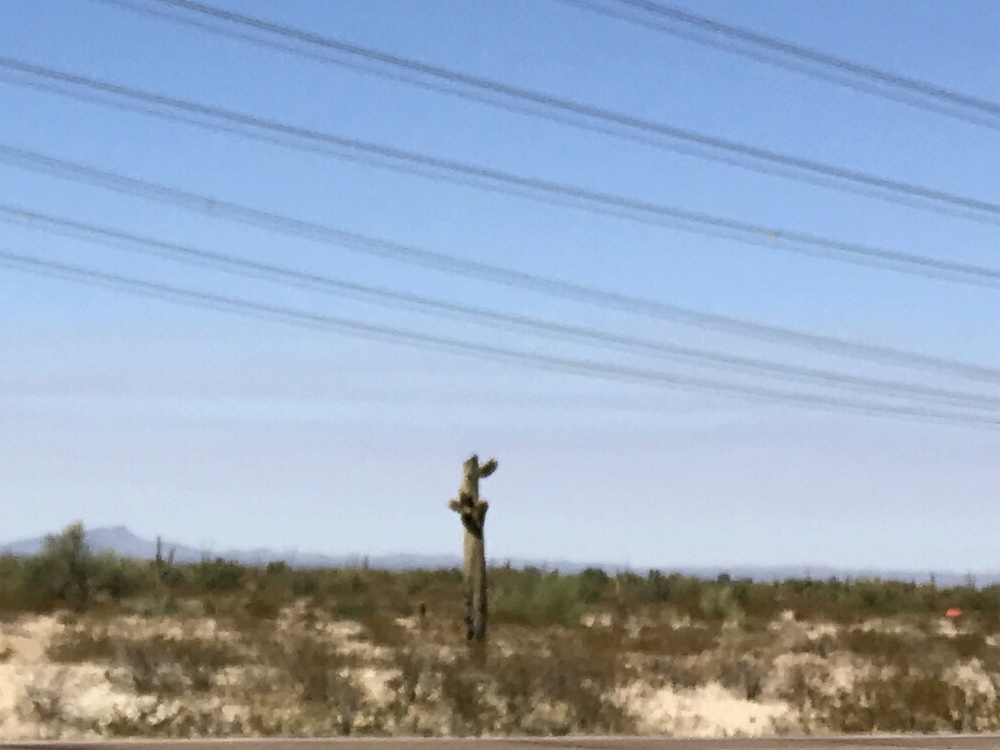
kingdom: Plantae
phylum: Tracheophyta
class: Magnoliopsida
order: Caryophyllales
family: Cactaceae
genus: Carnegiea
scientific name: Carnegiea gigantea
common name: Saguaro
